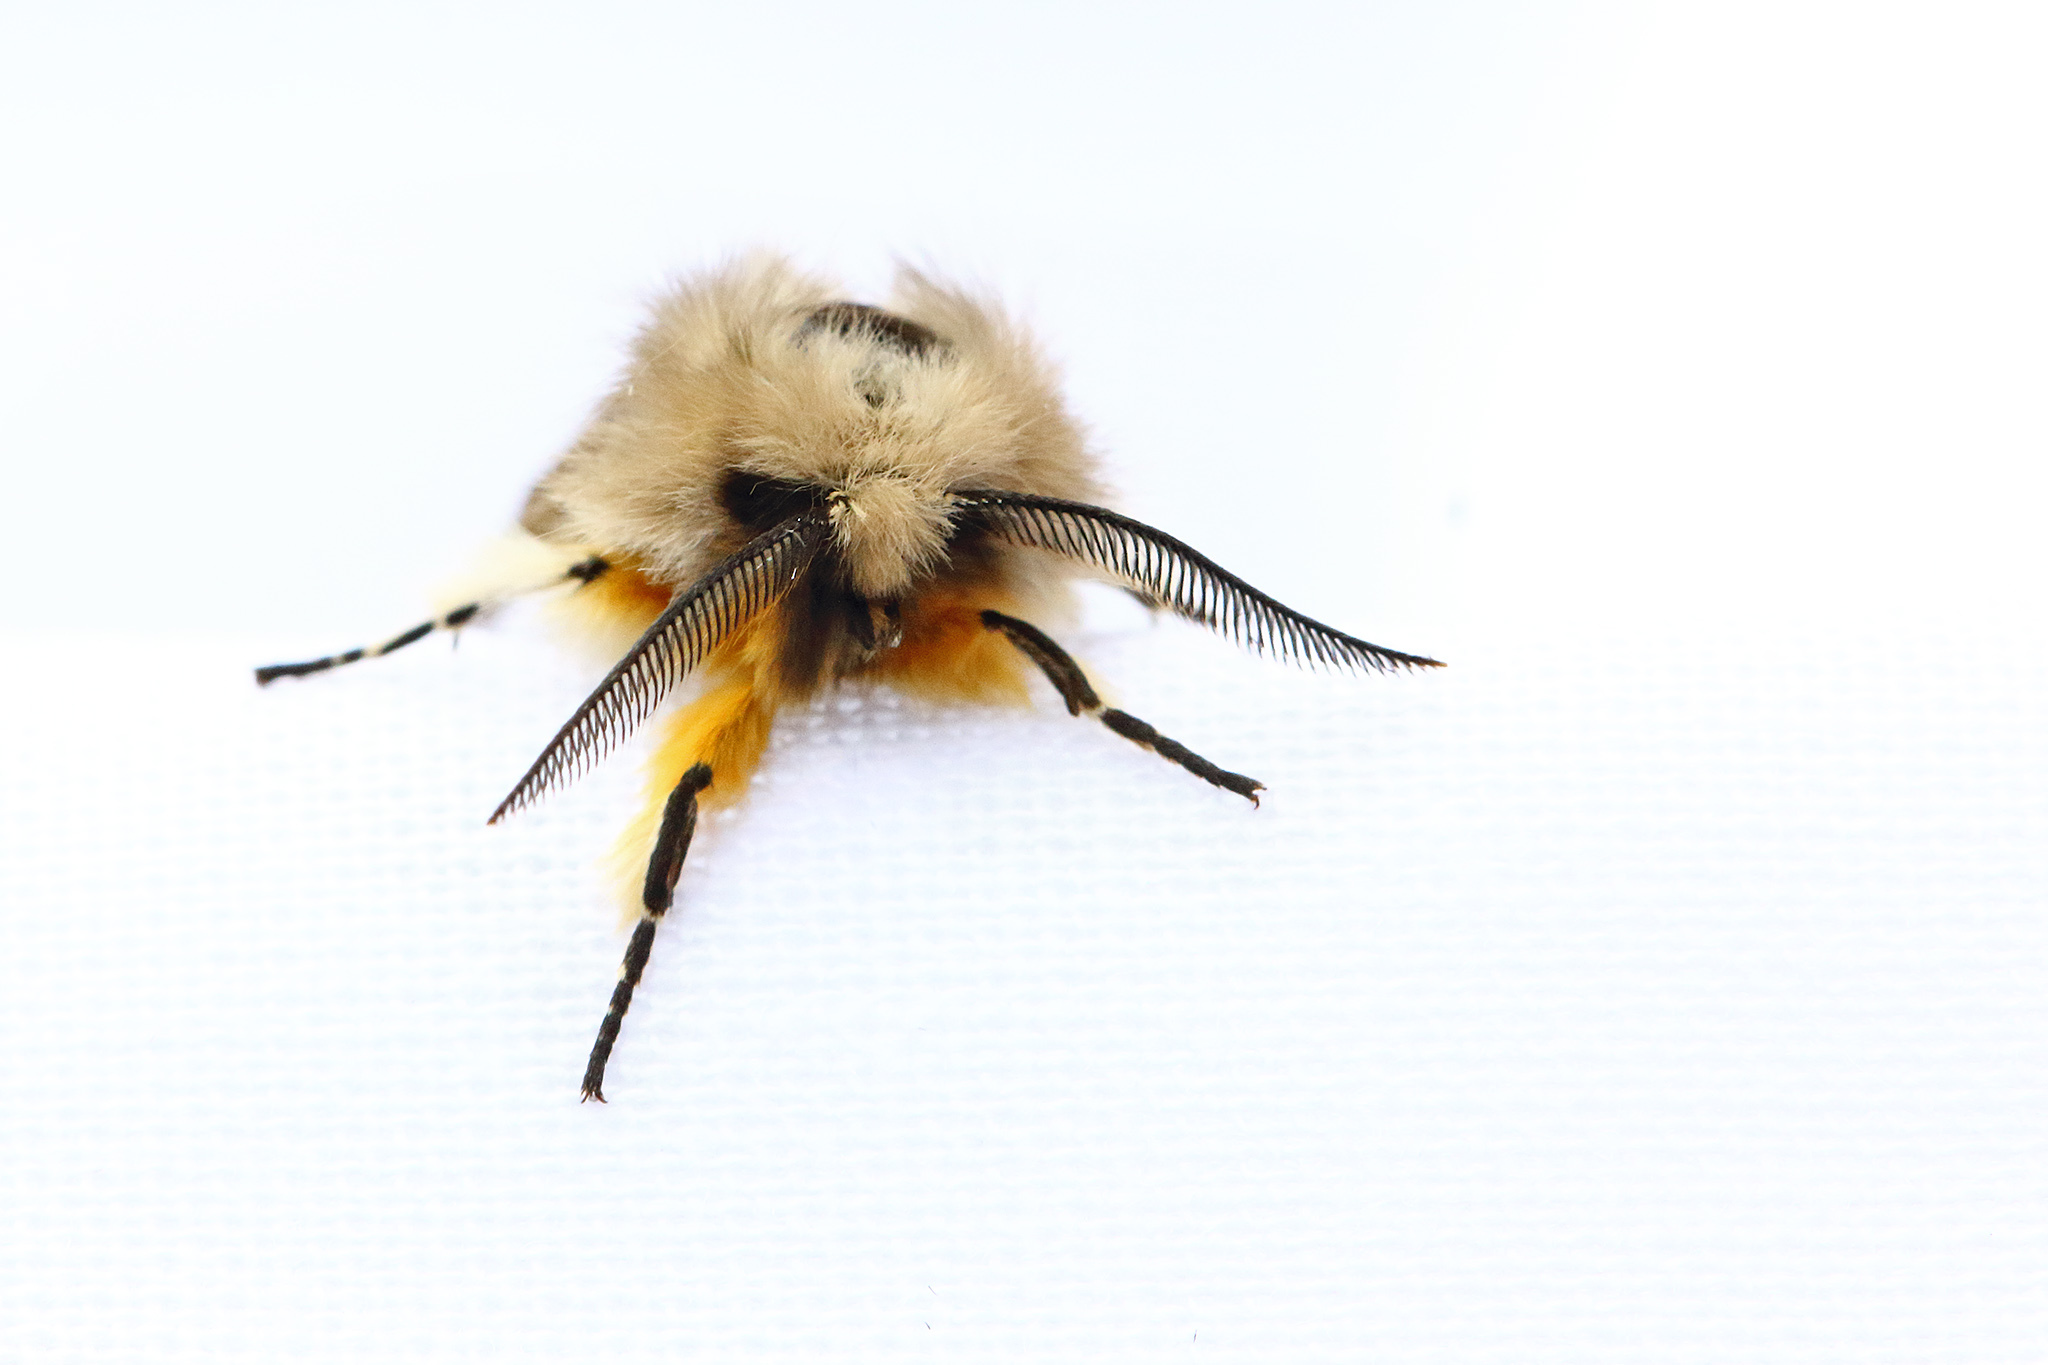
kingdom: Animalia
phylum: Arthropoda
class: Insecta
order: Lepidoptera
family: Erebidae
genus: Diaphora
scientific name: Diaphora mendica
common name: Muslin moth
